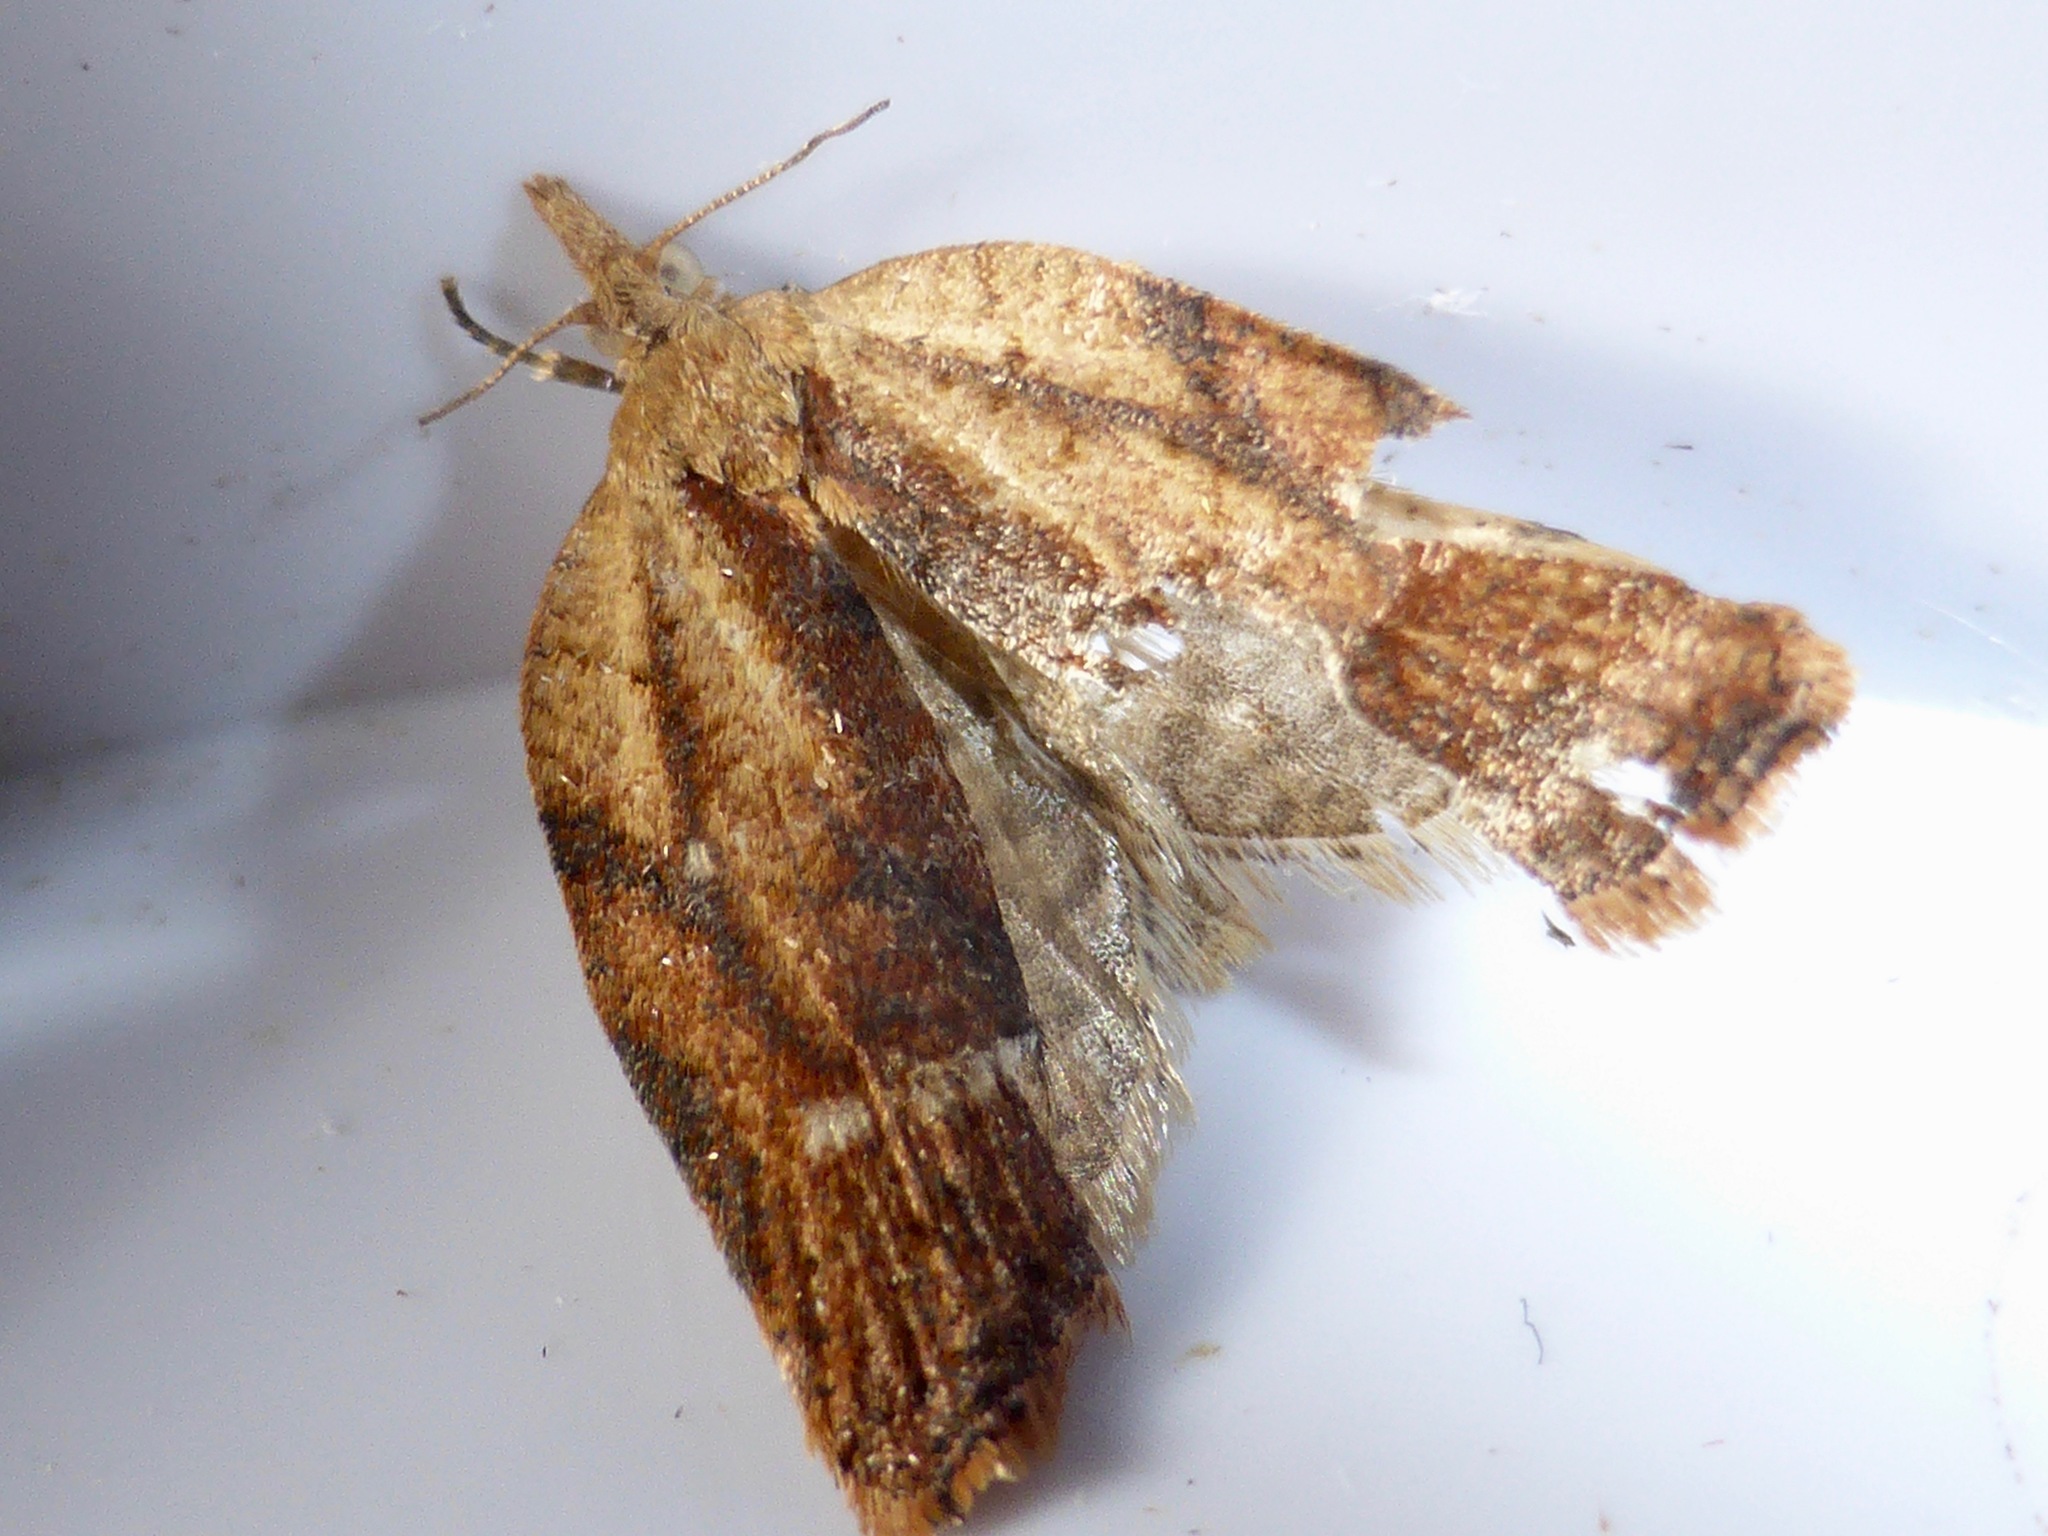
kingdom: Animalia
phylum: Arthropoda
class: Insecta
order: Lepidoptera
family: Tortricidae
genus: Epiphyas
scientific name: Epiphyas postvittana
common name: Light brown apple moth
